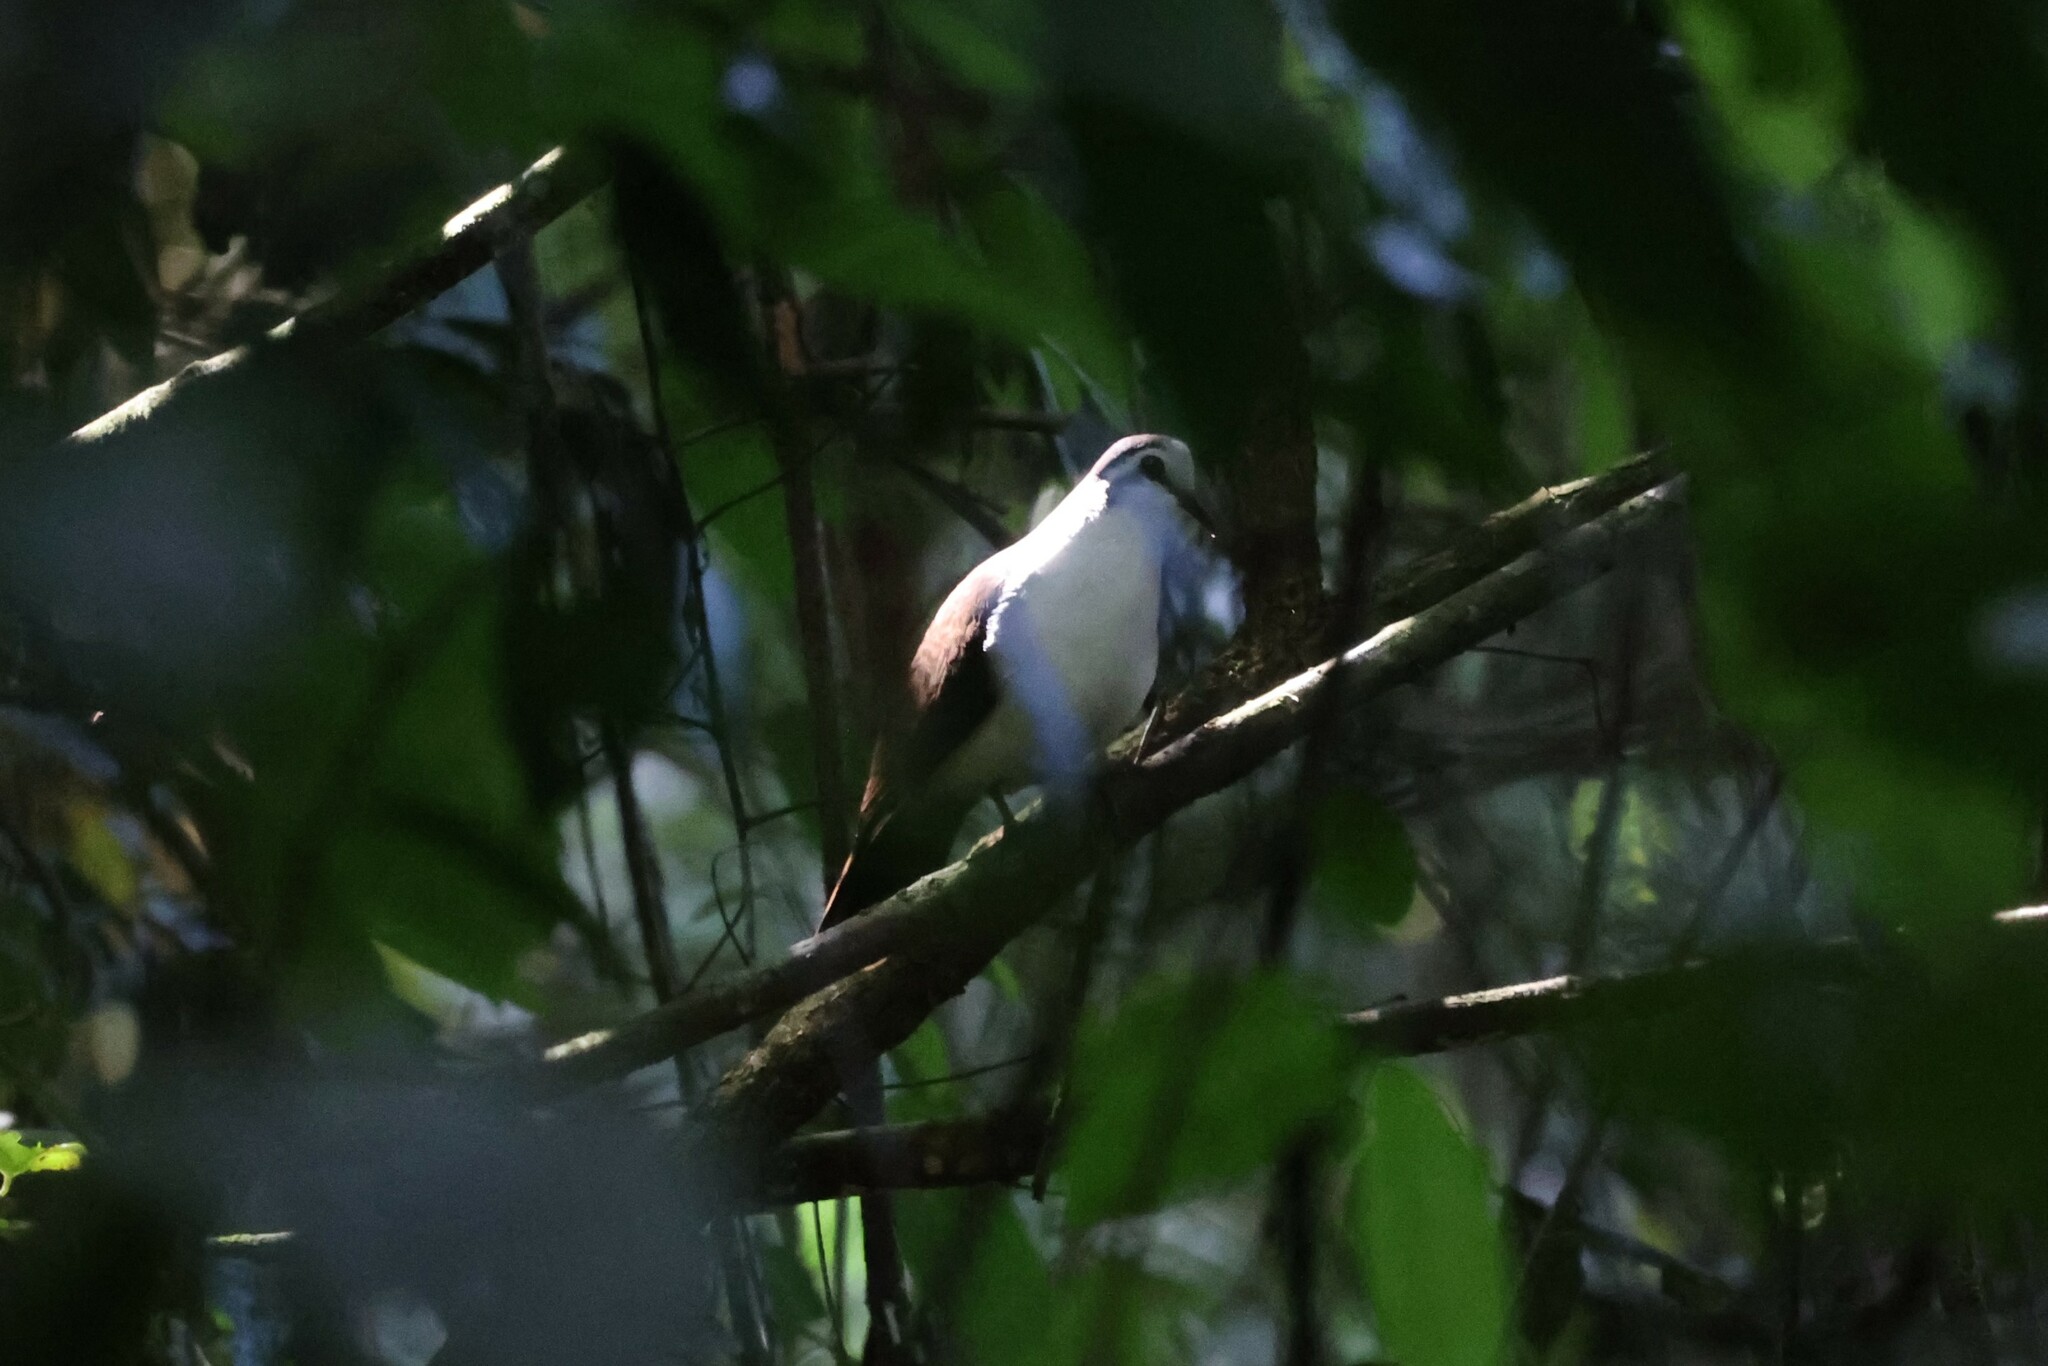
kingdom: Animalia
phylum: Chordata
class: Aves
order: Columbiformes
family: Columbidae
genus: Turtur
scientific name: Turtur tympanistria
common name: Tambourine dove
